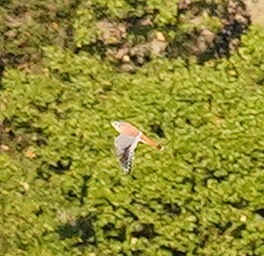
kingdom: Animalia
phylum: Chordata
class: Aves
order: Falconiformes
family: Falconidae
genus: Falco
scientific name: Falco sparverius
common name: American kestrel
